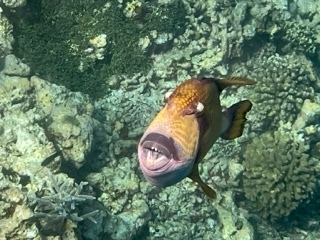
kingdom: Animalia
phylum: Chordata
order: Tetraodontiformes
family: Balistidae
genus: Balistoides
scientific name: Balistoides viridescens
